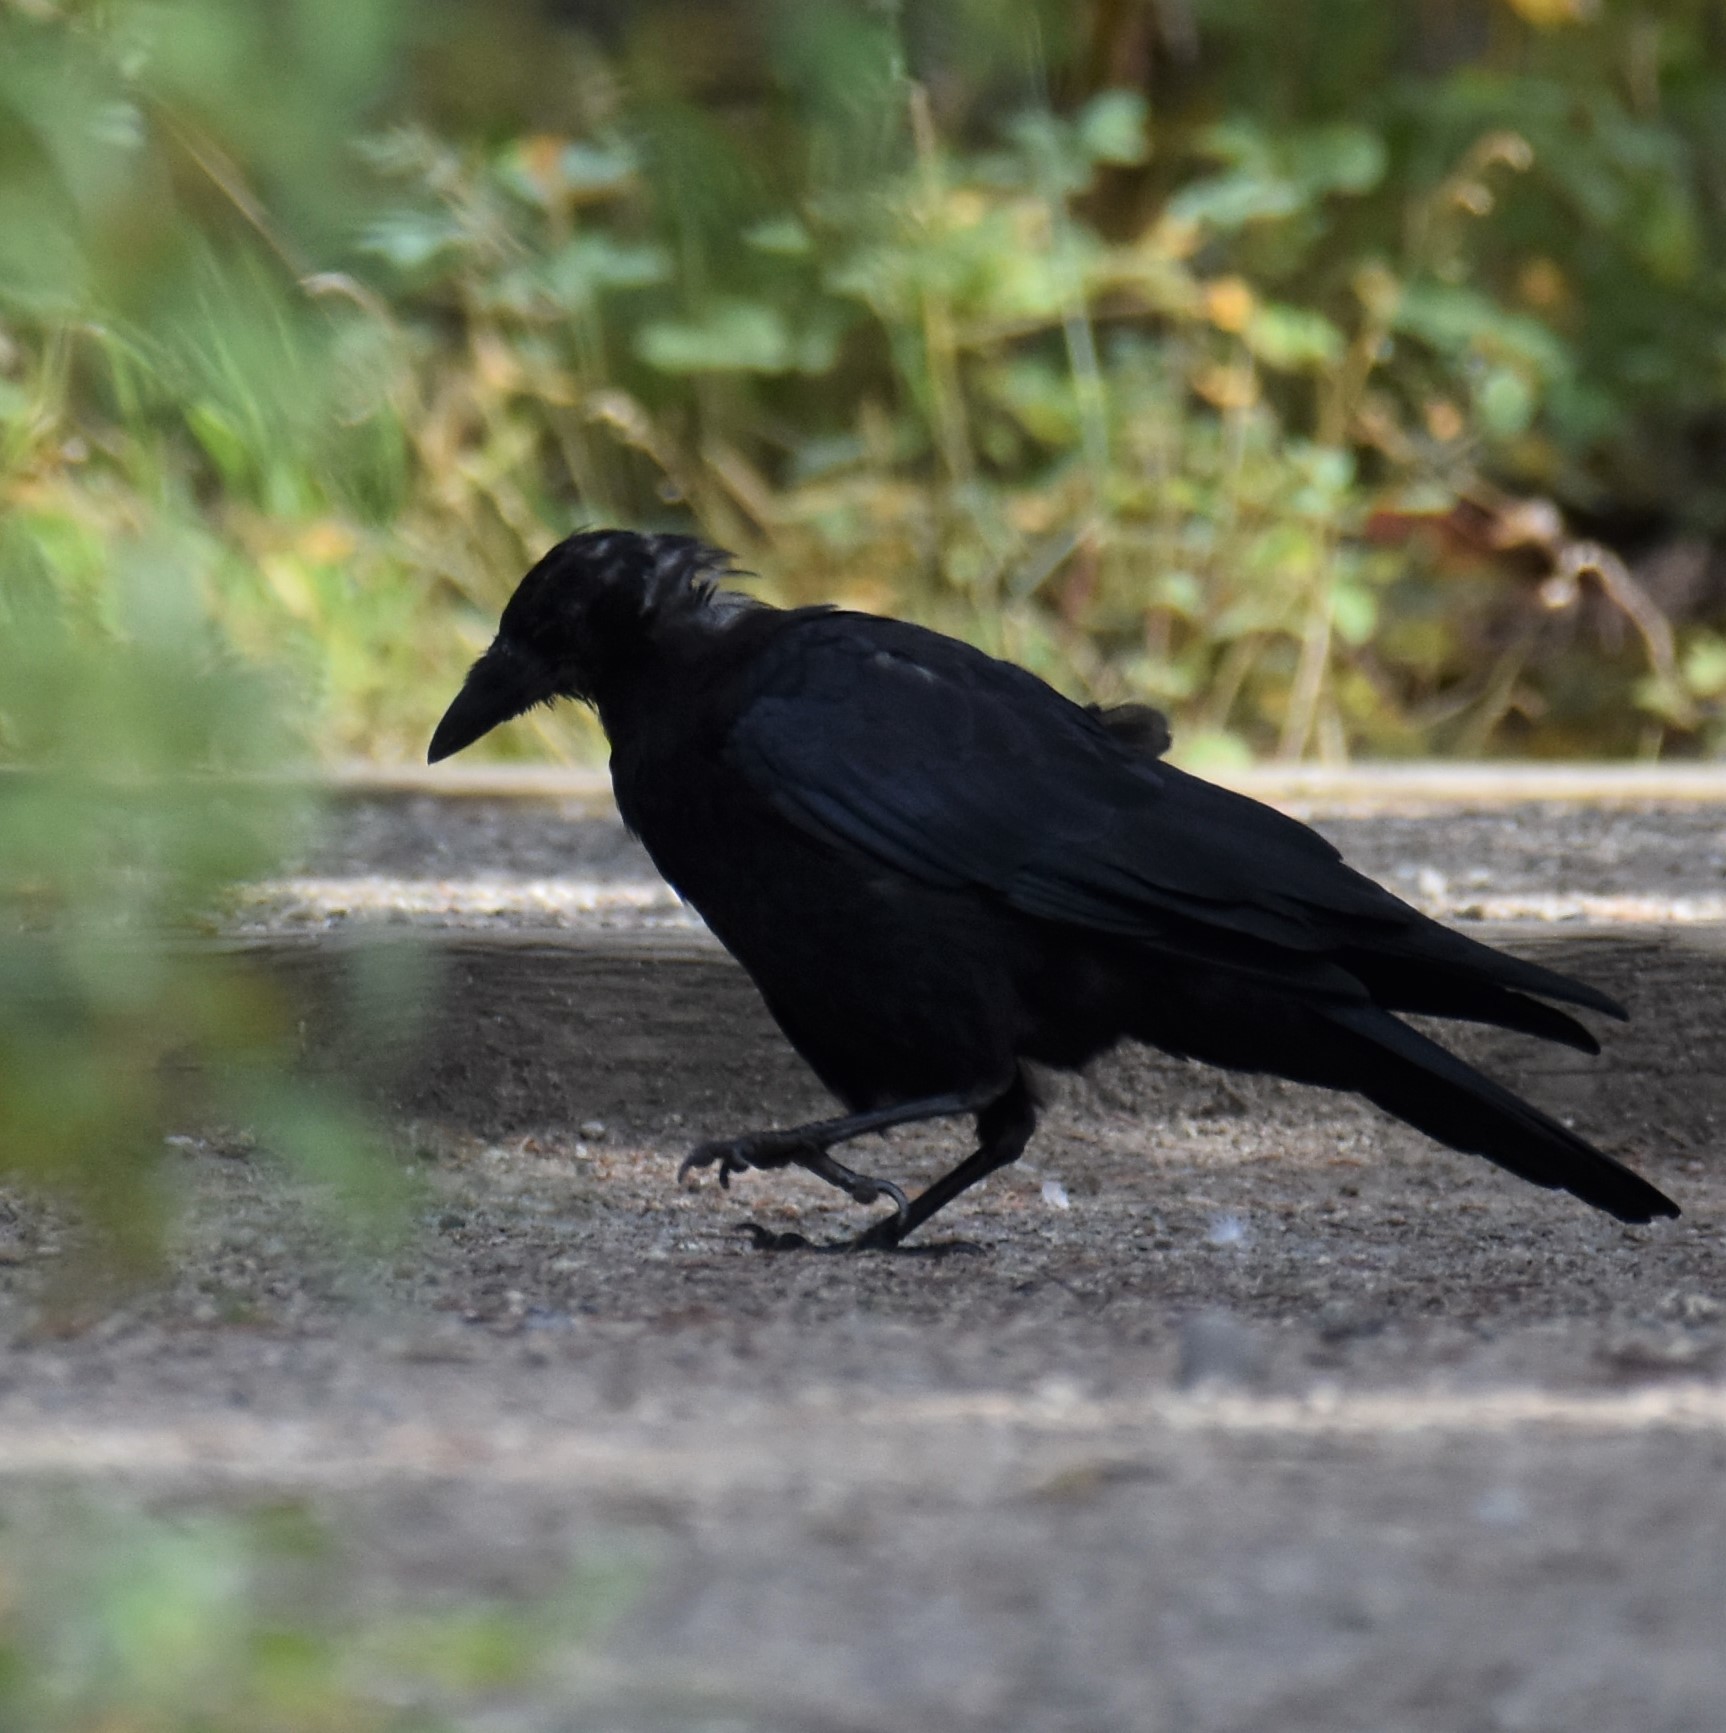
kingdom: Animalia
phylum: Chordata
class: Aves
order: Passeriformes
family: Corvidae
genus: Corvus
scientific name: Corvus corax
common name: Common raven
